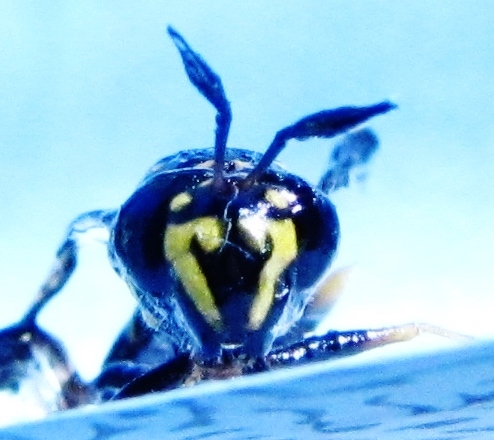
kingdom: Animalia
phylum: Arthropoda
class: Insecta
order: Diptera
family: Syrphidae
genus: Sphiximorpha
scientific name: Sphiximorpha willistoni
